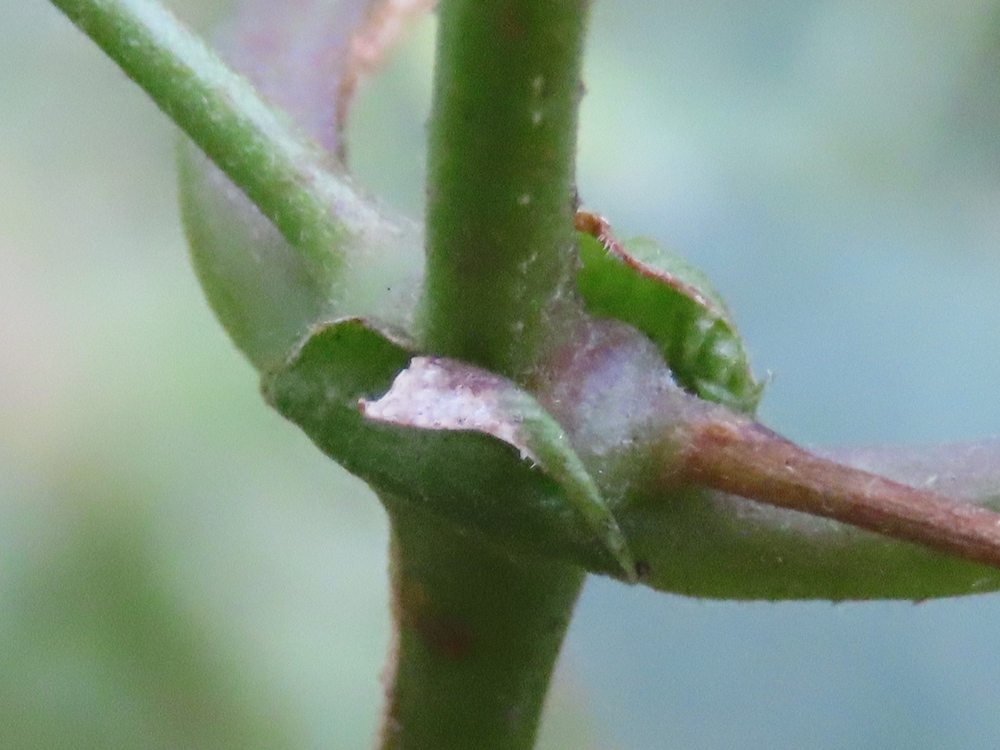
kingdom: Plantae
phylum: Tracheophyta
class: Magnoliopsida
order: Rosales
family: Cannabaceae
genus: Humulus
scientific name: Humulus lupulus
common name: Hop
